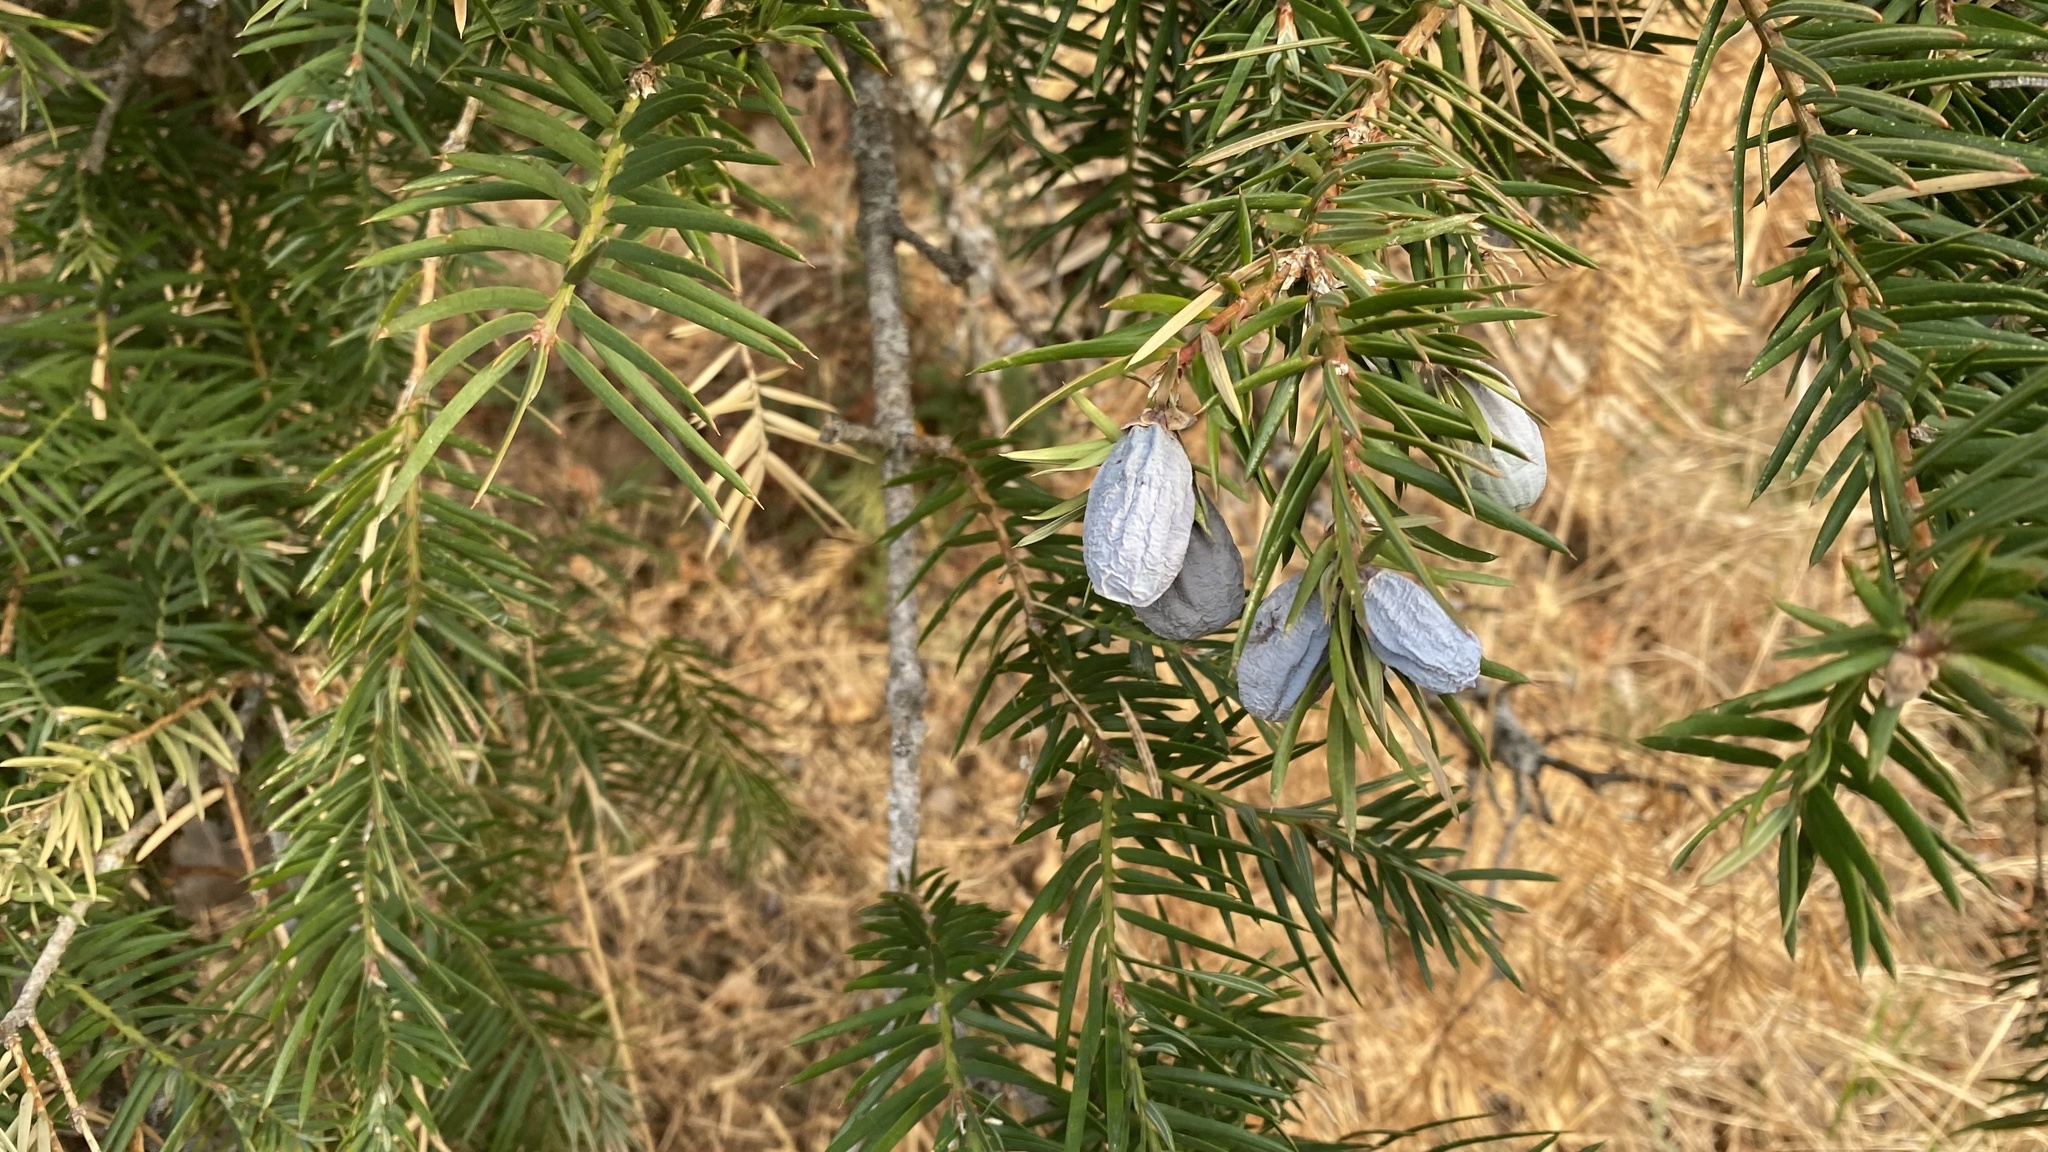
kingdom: Plantae
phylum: Tracheophyta
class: Pinopsida
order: Pinales
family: Taxaceae
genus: Torreya
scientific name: Torreya californica
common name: California torreya
